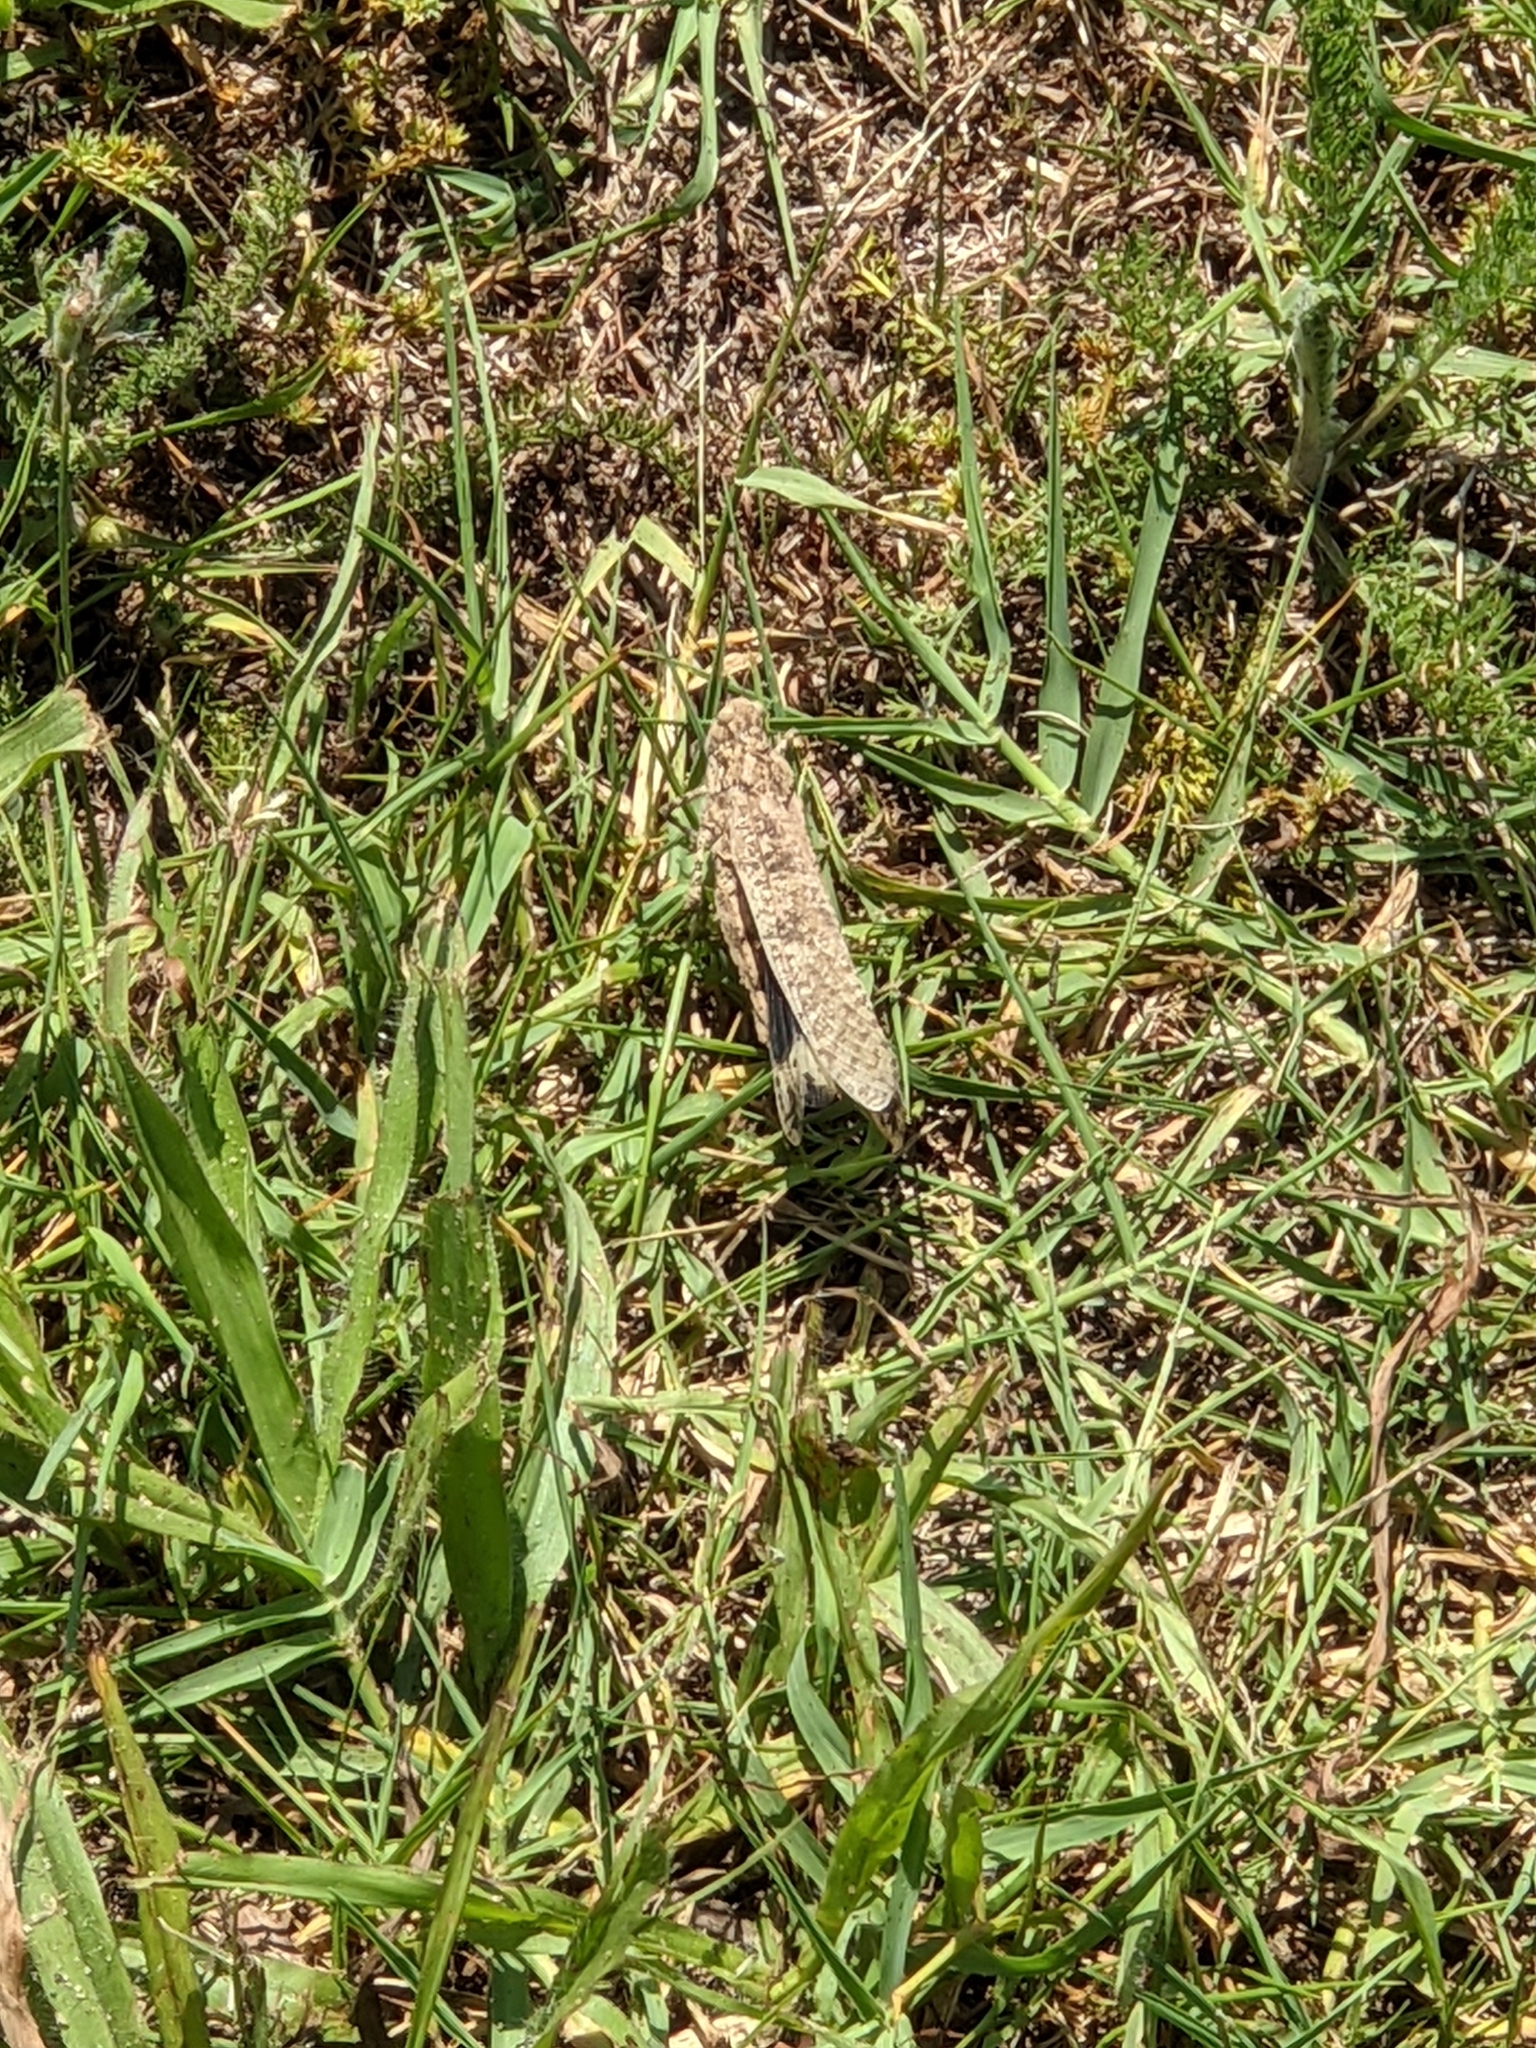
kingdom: Animalia
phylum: Arthropoda
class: Insecta
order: Orthoptera
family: Acrididae
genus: Dissosteira
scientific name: Dissosteira carolina
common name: Carolina grasshopper
